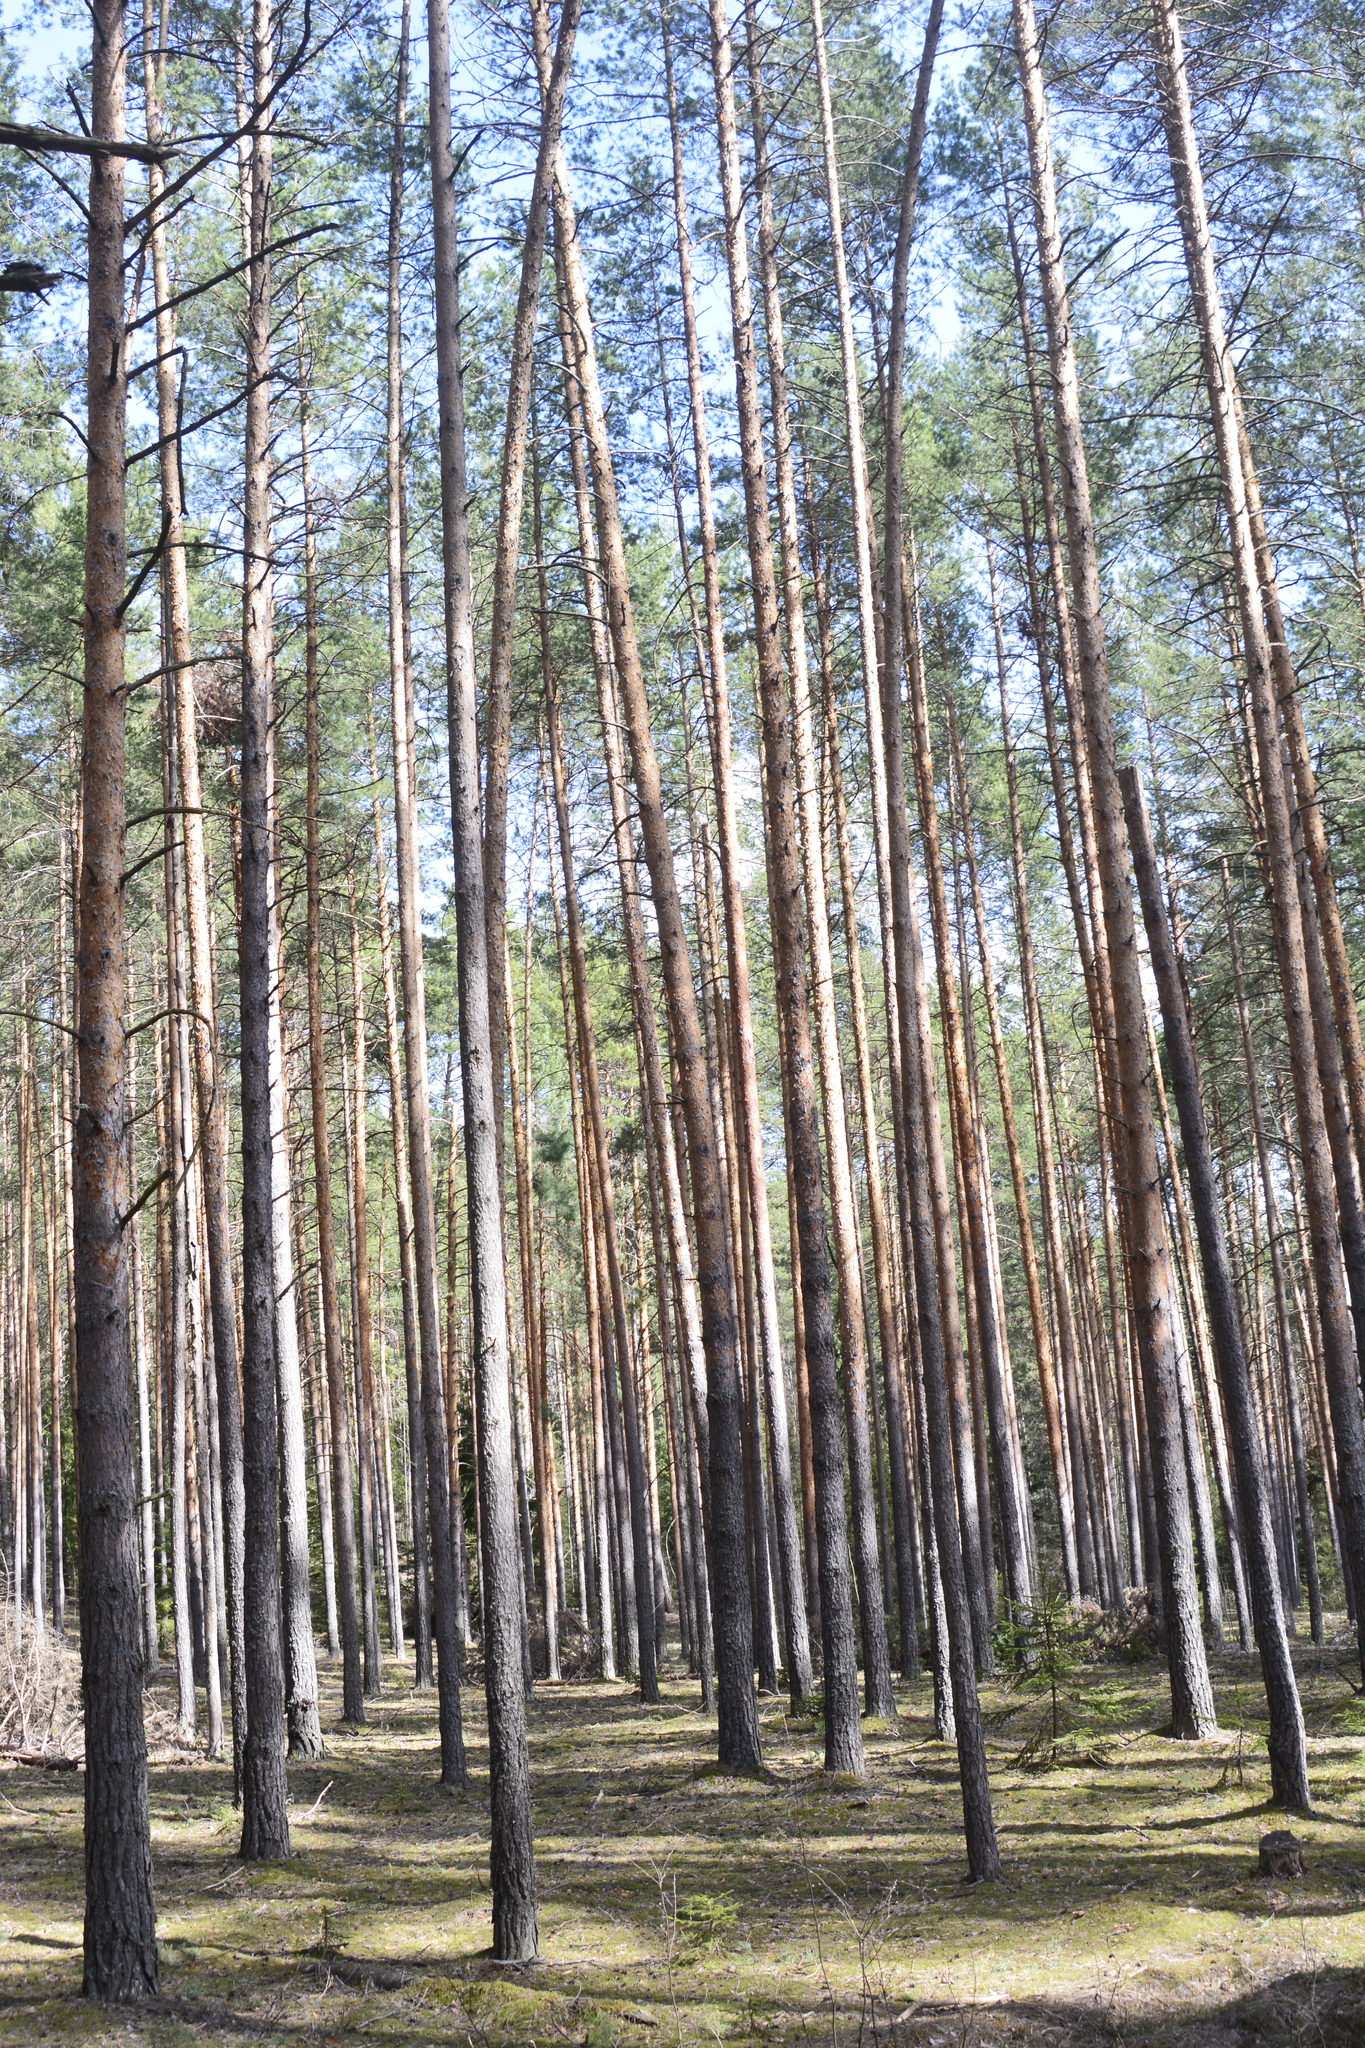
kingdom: Plantae
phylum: Tracheophyta
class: Pinopsida
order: Pinales
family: Pinaceae
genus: Pinus
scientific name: Pinus sylvestris
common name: Scots pine
